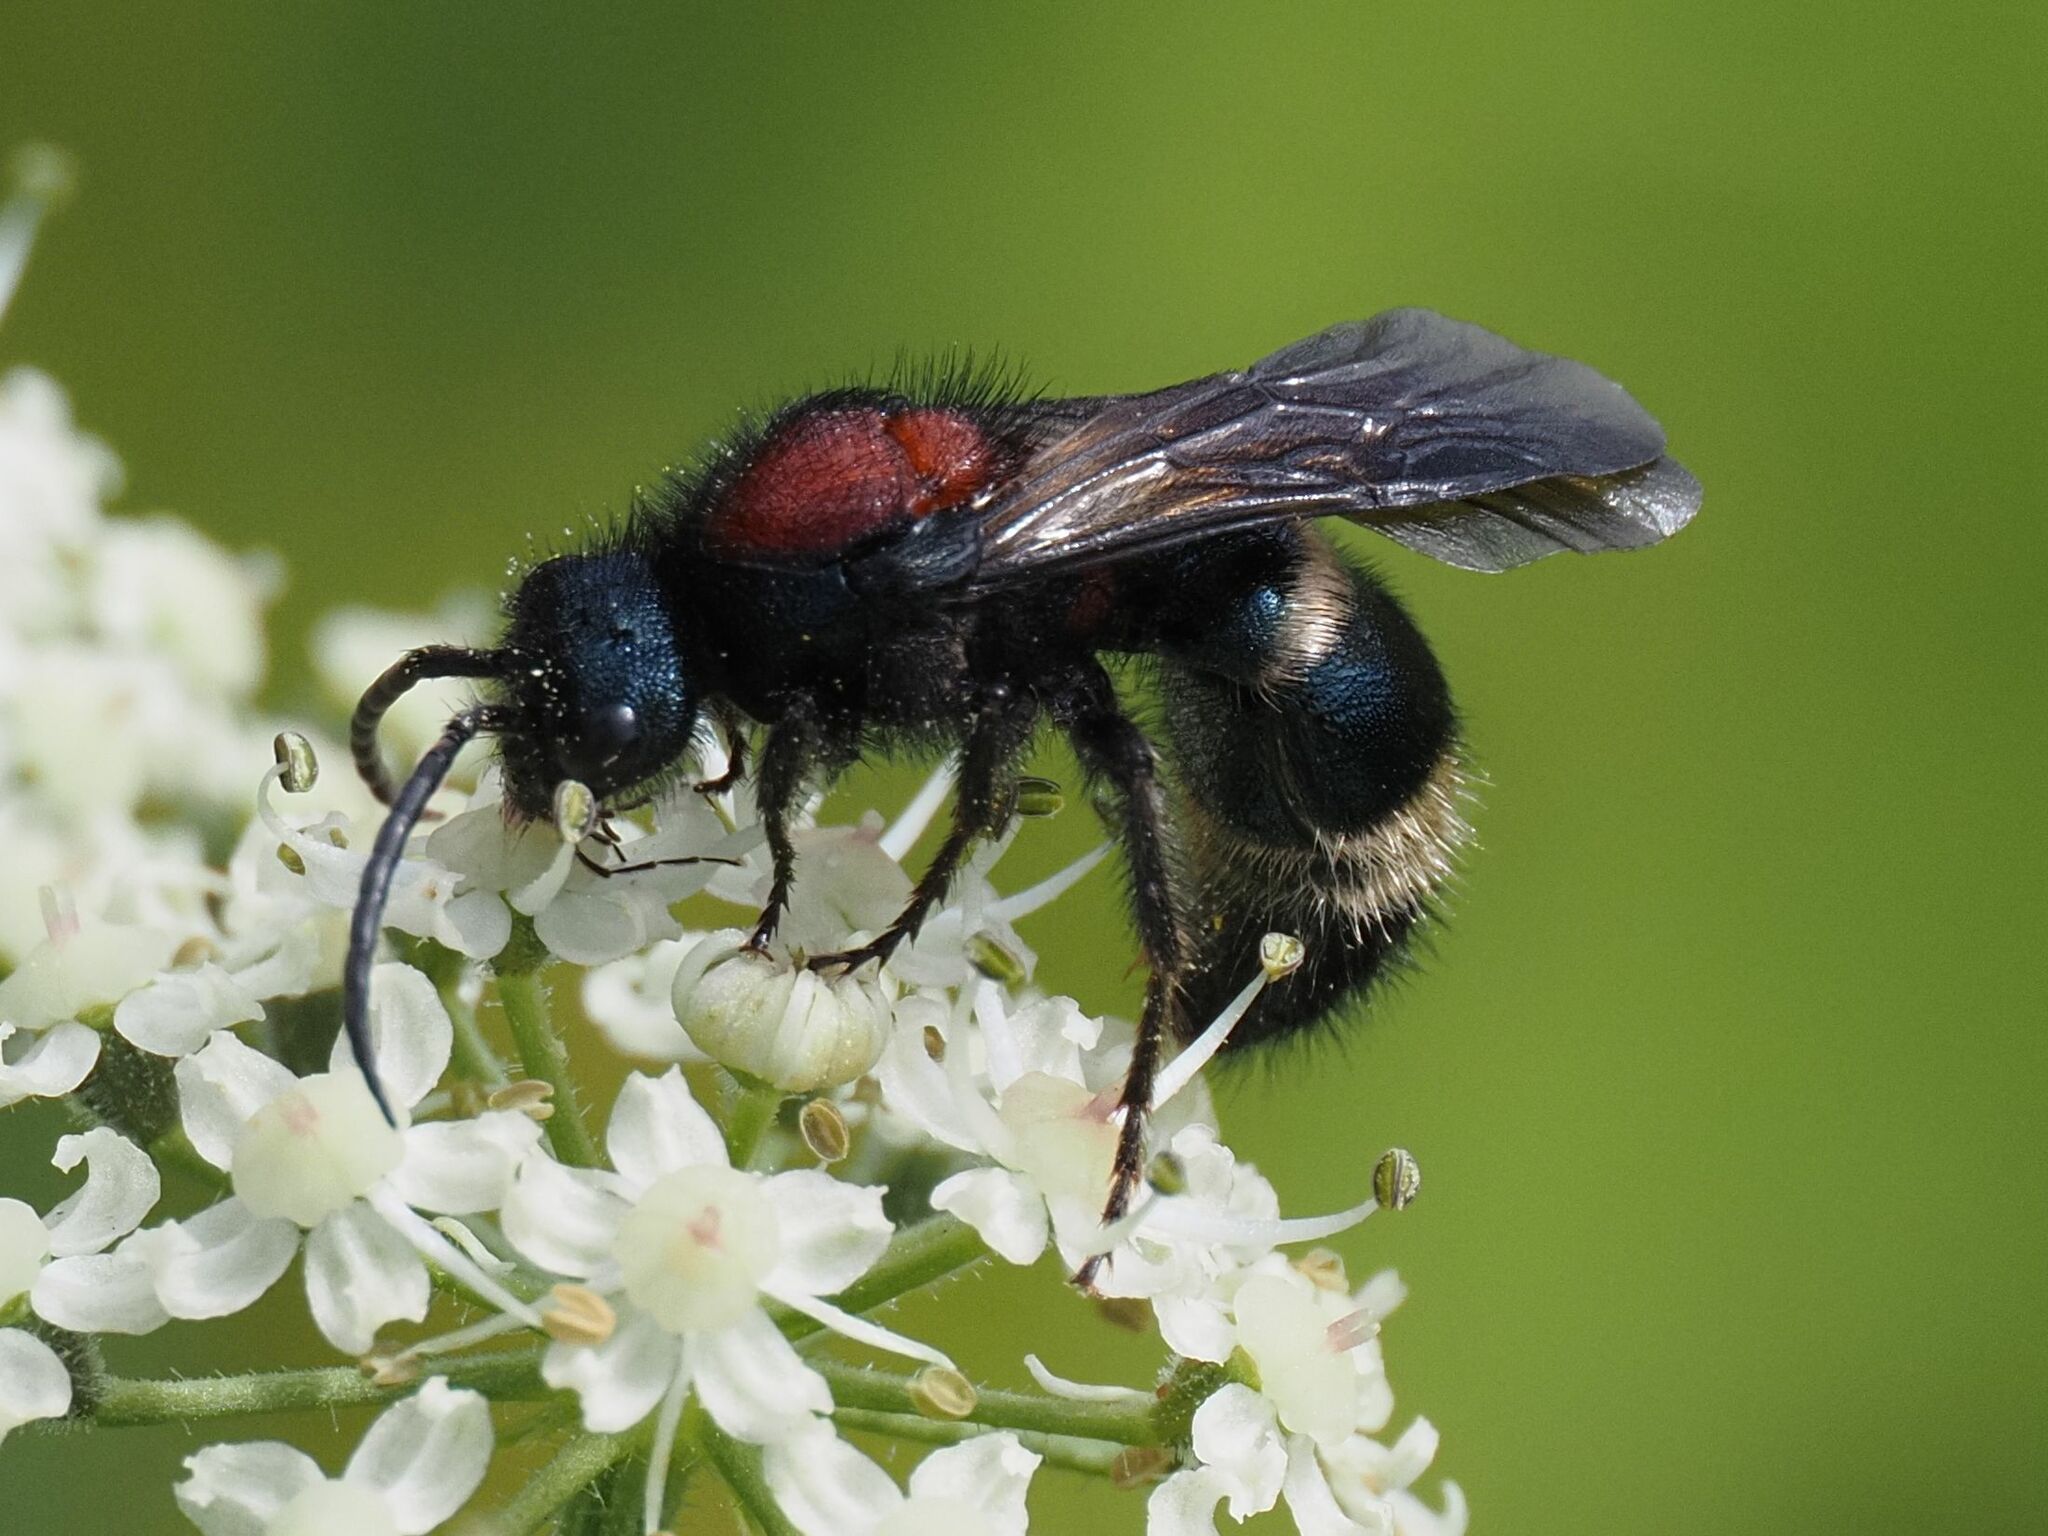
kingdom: Animalia
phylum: Arthropoda
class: Insecta
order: Hymenoptera
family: Mutillidae
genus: Mutilla
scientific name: Mutilla europaea
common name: Large velvet ant
